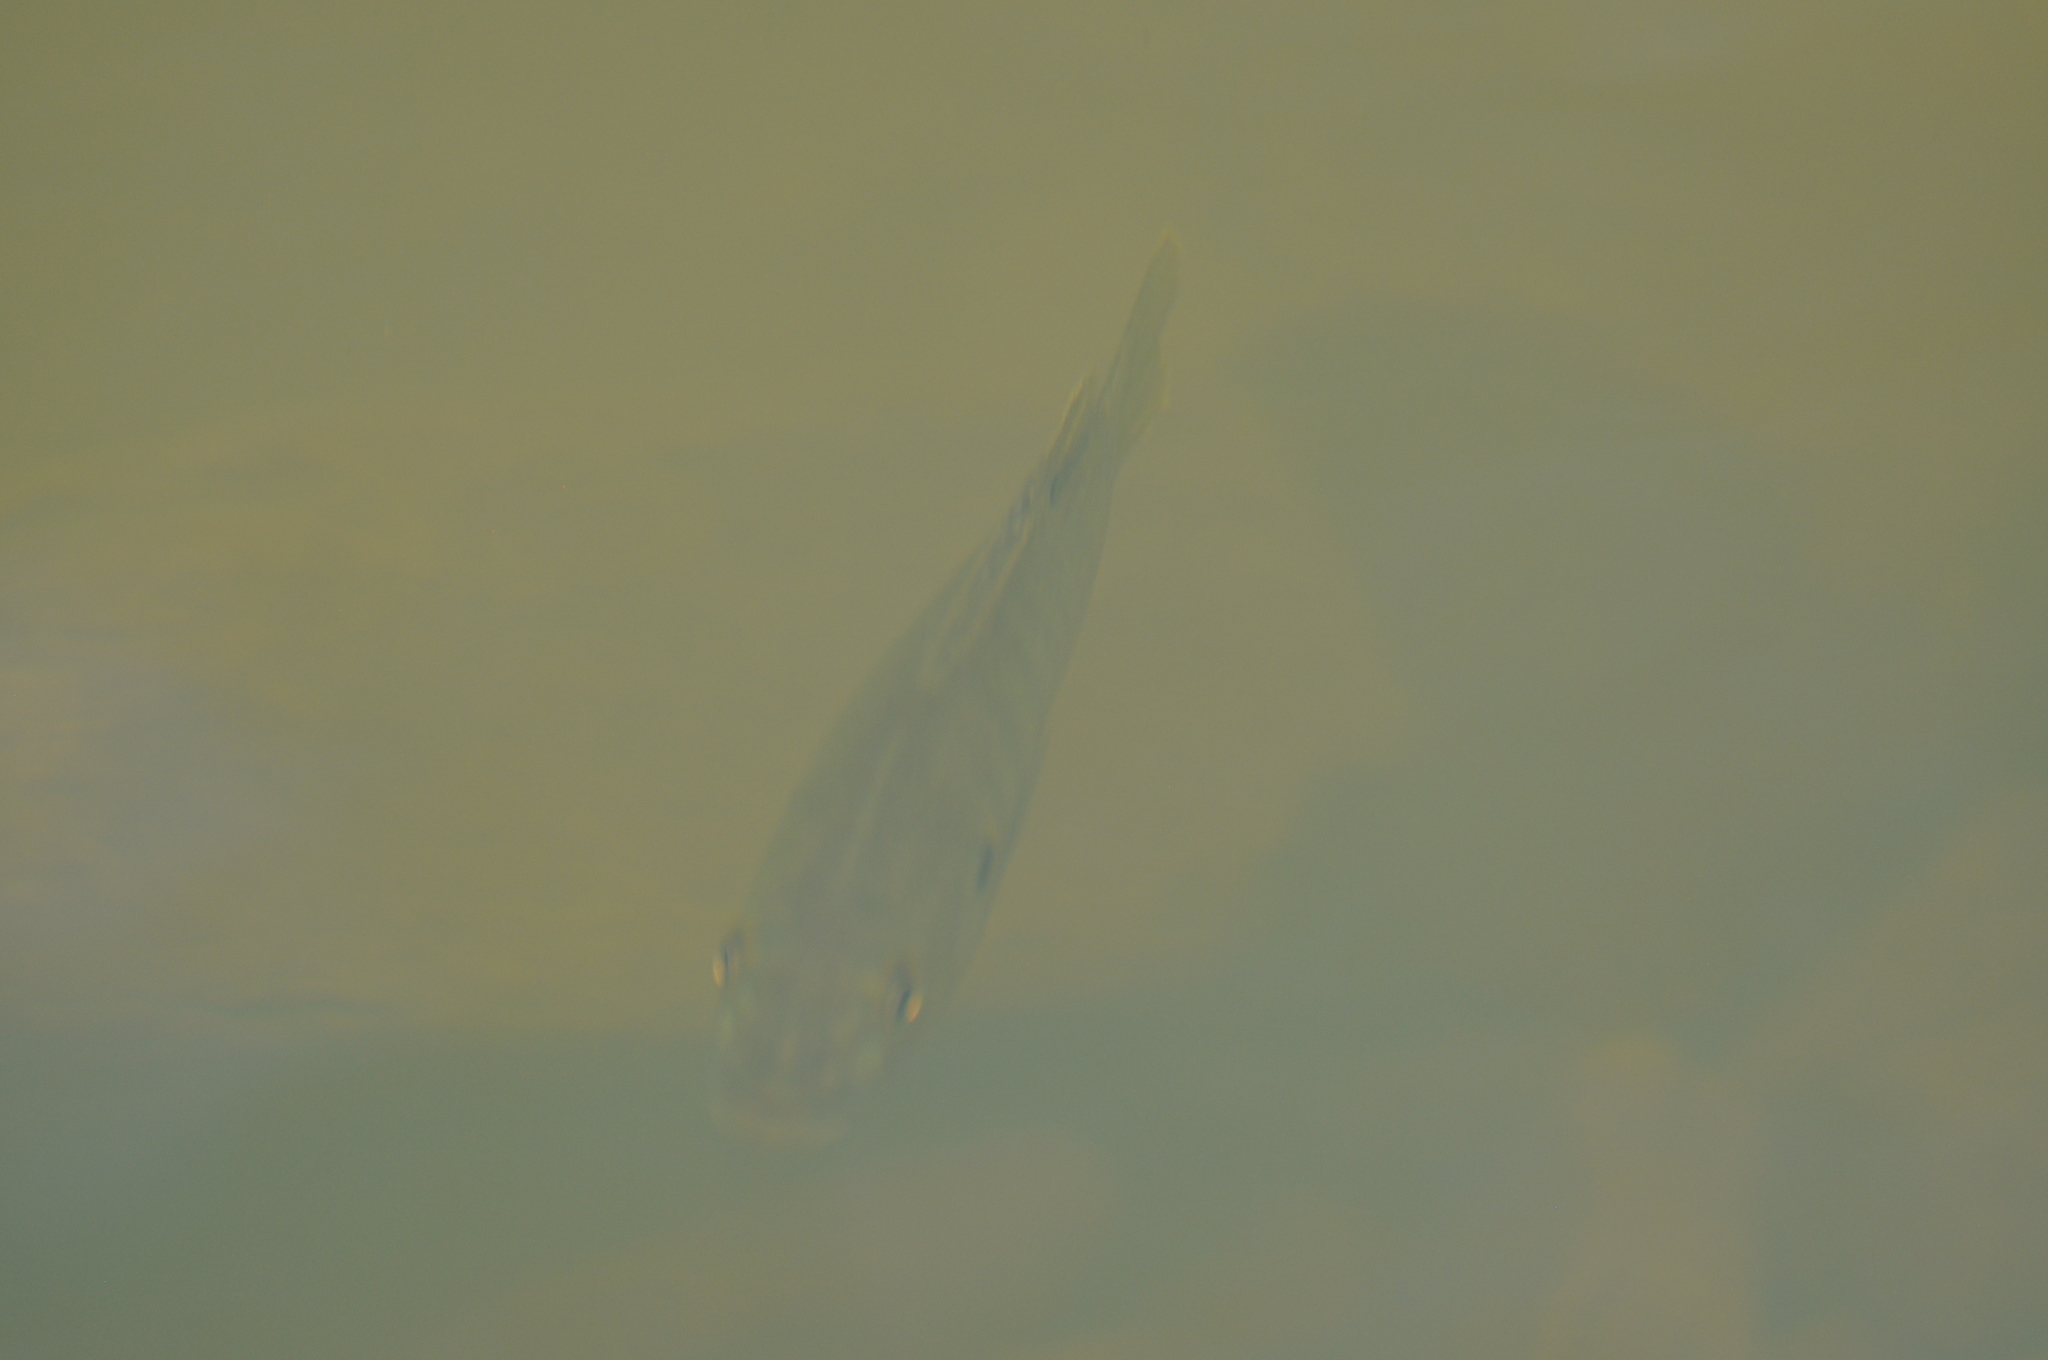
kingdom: Animalia
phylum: Chordata
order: Perciformes
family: Centrarchidae
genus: Lepomis
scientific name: Lepomis cyanellus
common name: Green sunfish
